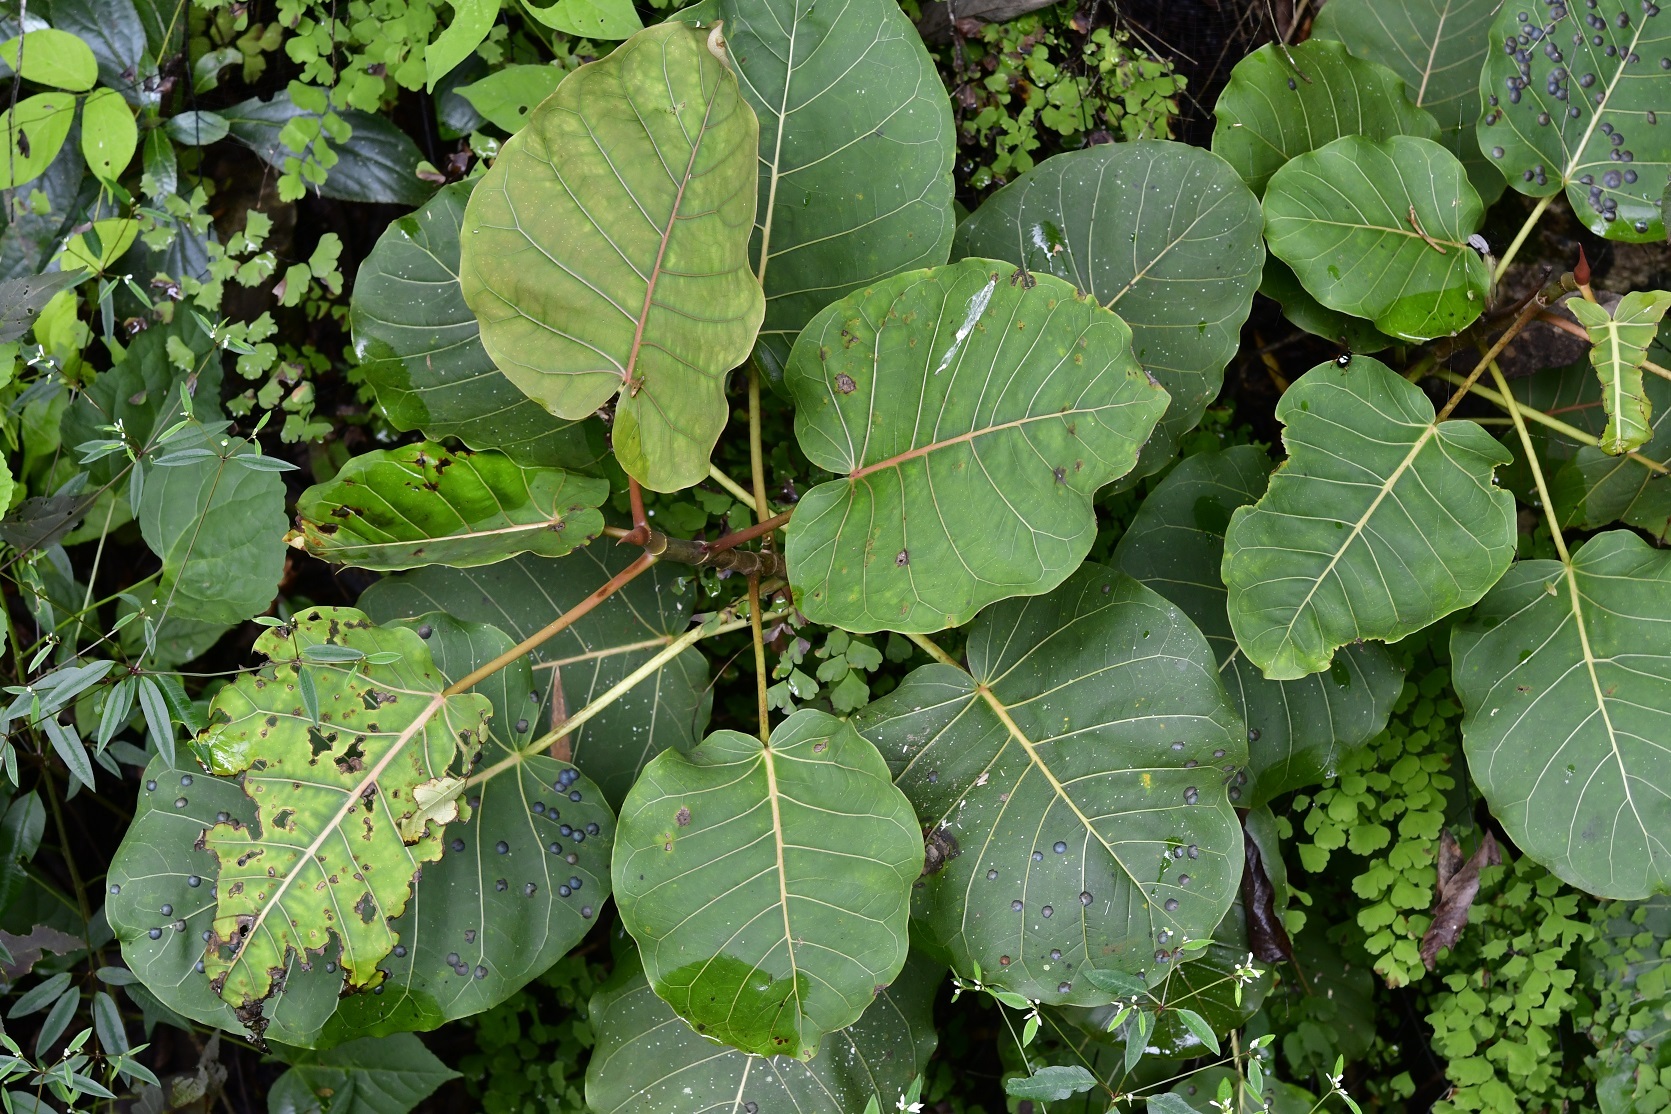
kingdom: Plantae
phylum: Tracheophyta
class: Magnoliopsida
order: Rosales
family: Moraceae
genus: Ficus
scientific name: Ficus aurea
